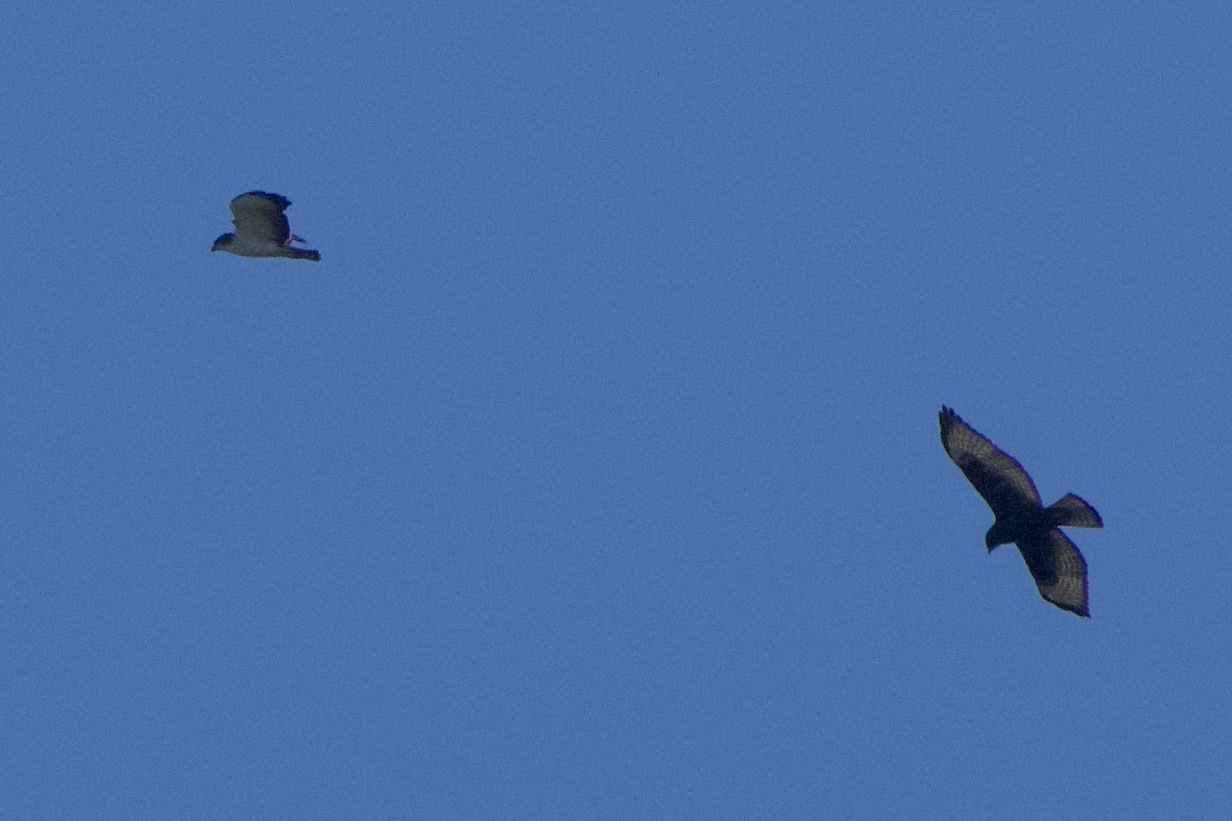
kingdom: Animalia
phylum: Chordata
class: Aves
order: Accipitriformes
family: Accipitridae
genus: Buteo
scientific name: Buteo brachyurus
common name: Short-tailed hawk
